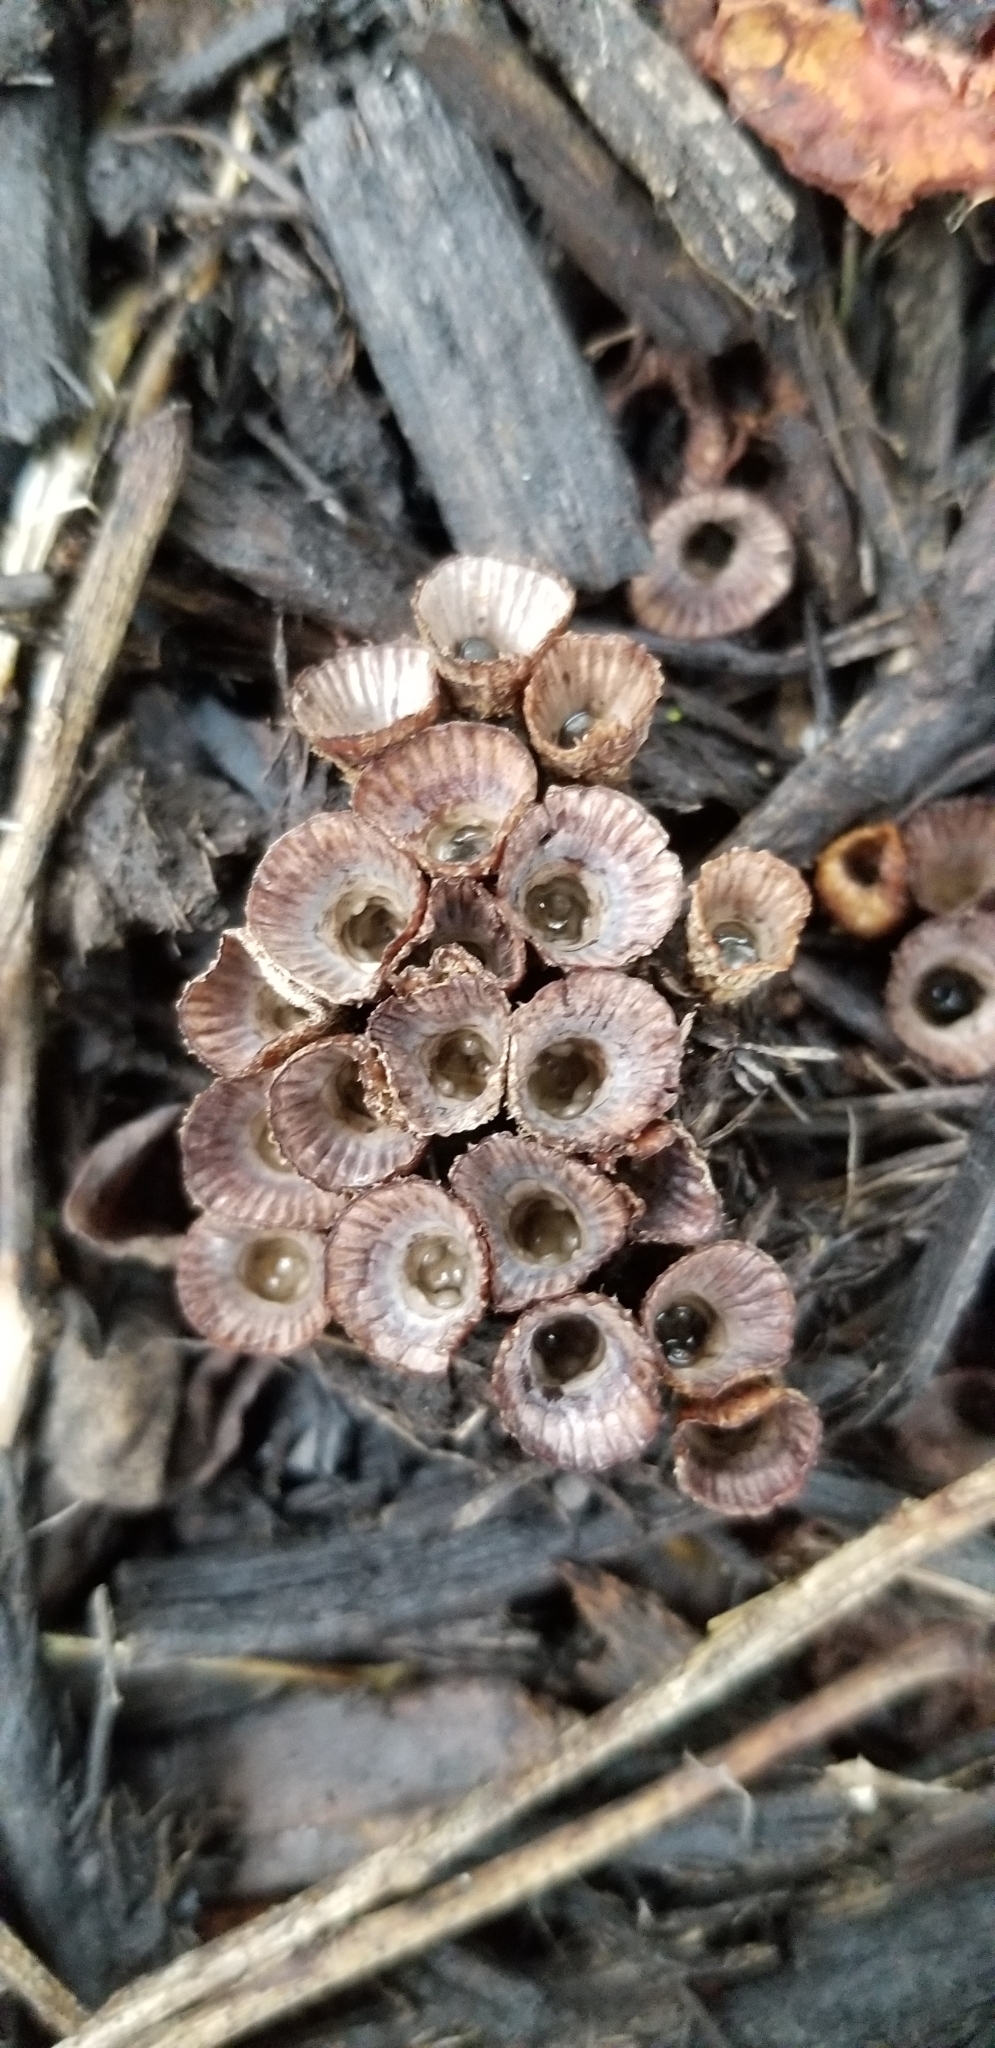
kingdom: Fungi
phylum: Basidiomycota
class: Agaricomycetes
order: Agaricales
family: Agaricaceae
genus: Cyathus
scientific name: Cyathus striatus
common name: Fluted bird's nest
